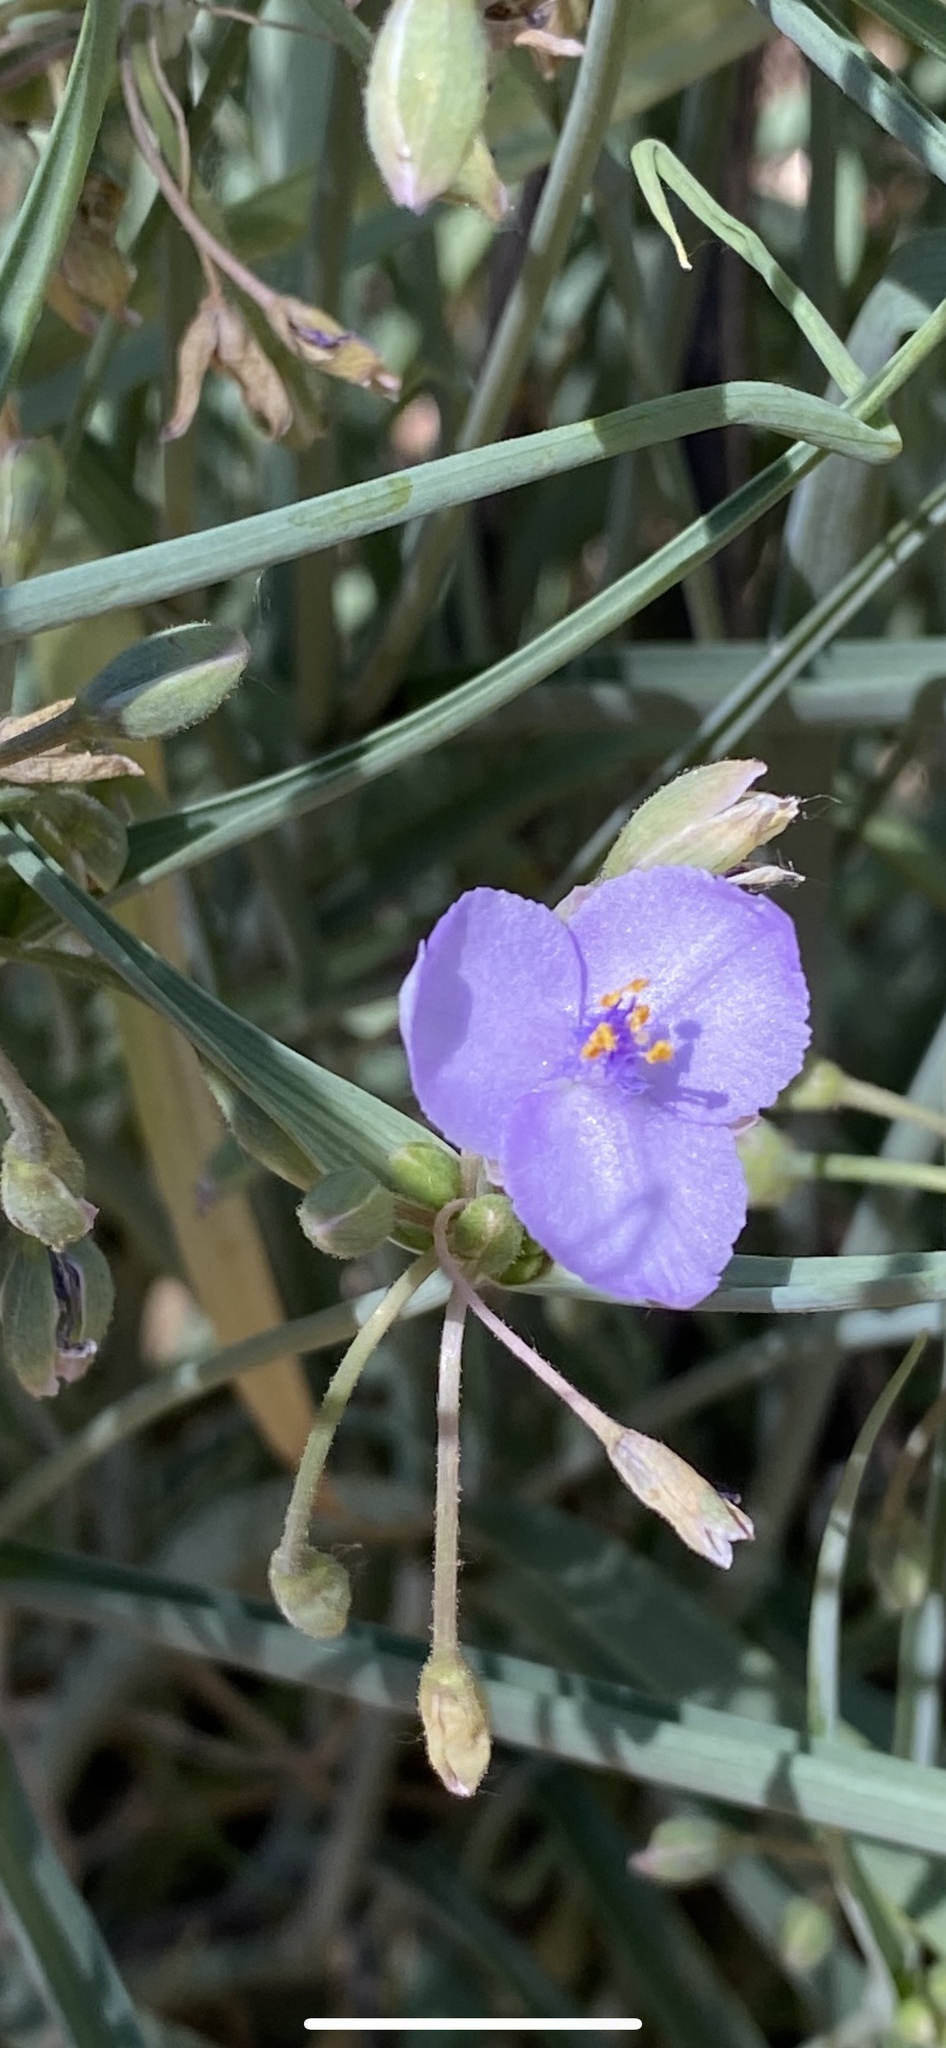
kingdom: Plantae
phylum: Tracheophyta
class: Liliopsida
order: Commelinales
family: Commelinaceae
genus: Tradescantia
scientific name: Tradescantia occidentalis
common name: Prairie spiderwort
